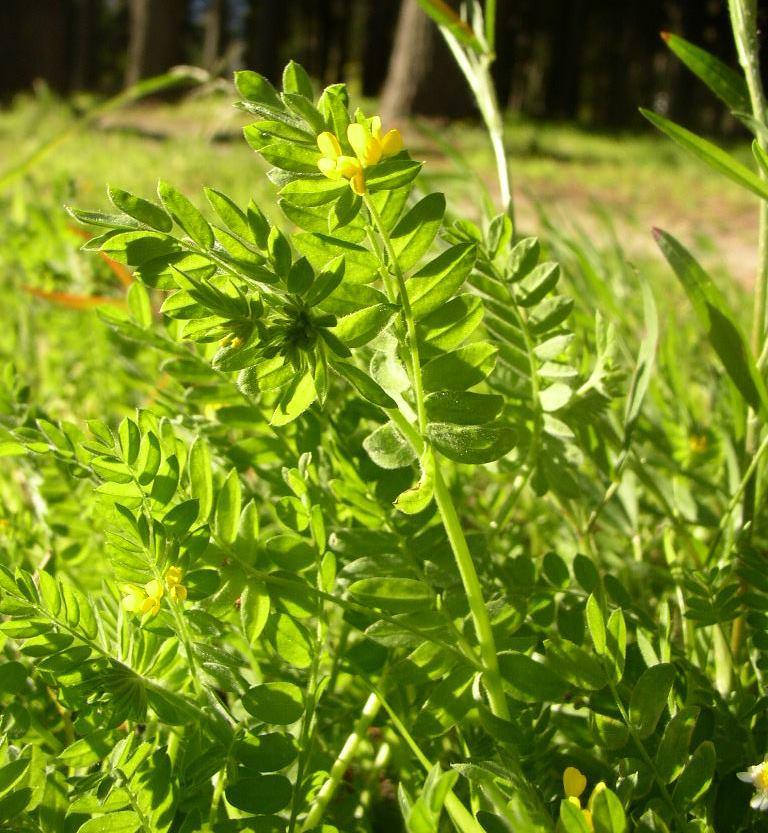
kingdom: Plantae
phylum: Tracheophyta
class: Magnoliopsida
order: Fabales
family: Fabaceae
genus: Ornithopus
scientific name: Ornithopus compressus
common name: Yellow serradella
